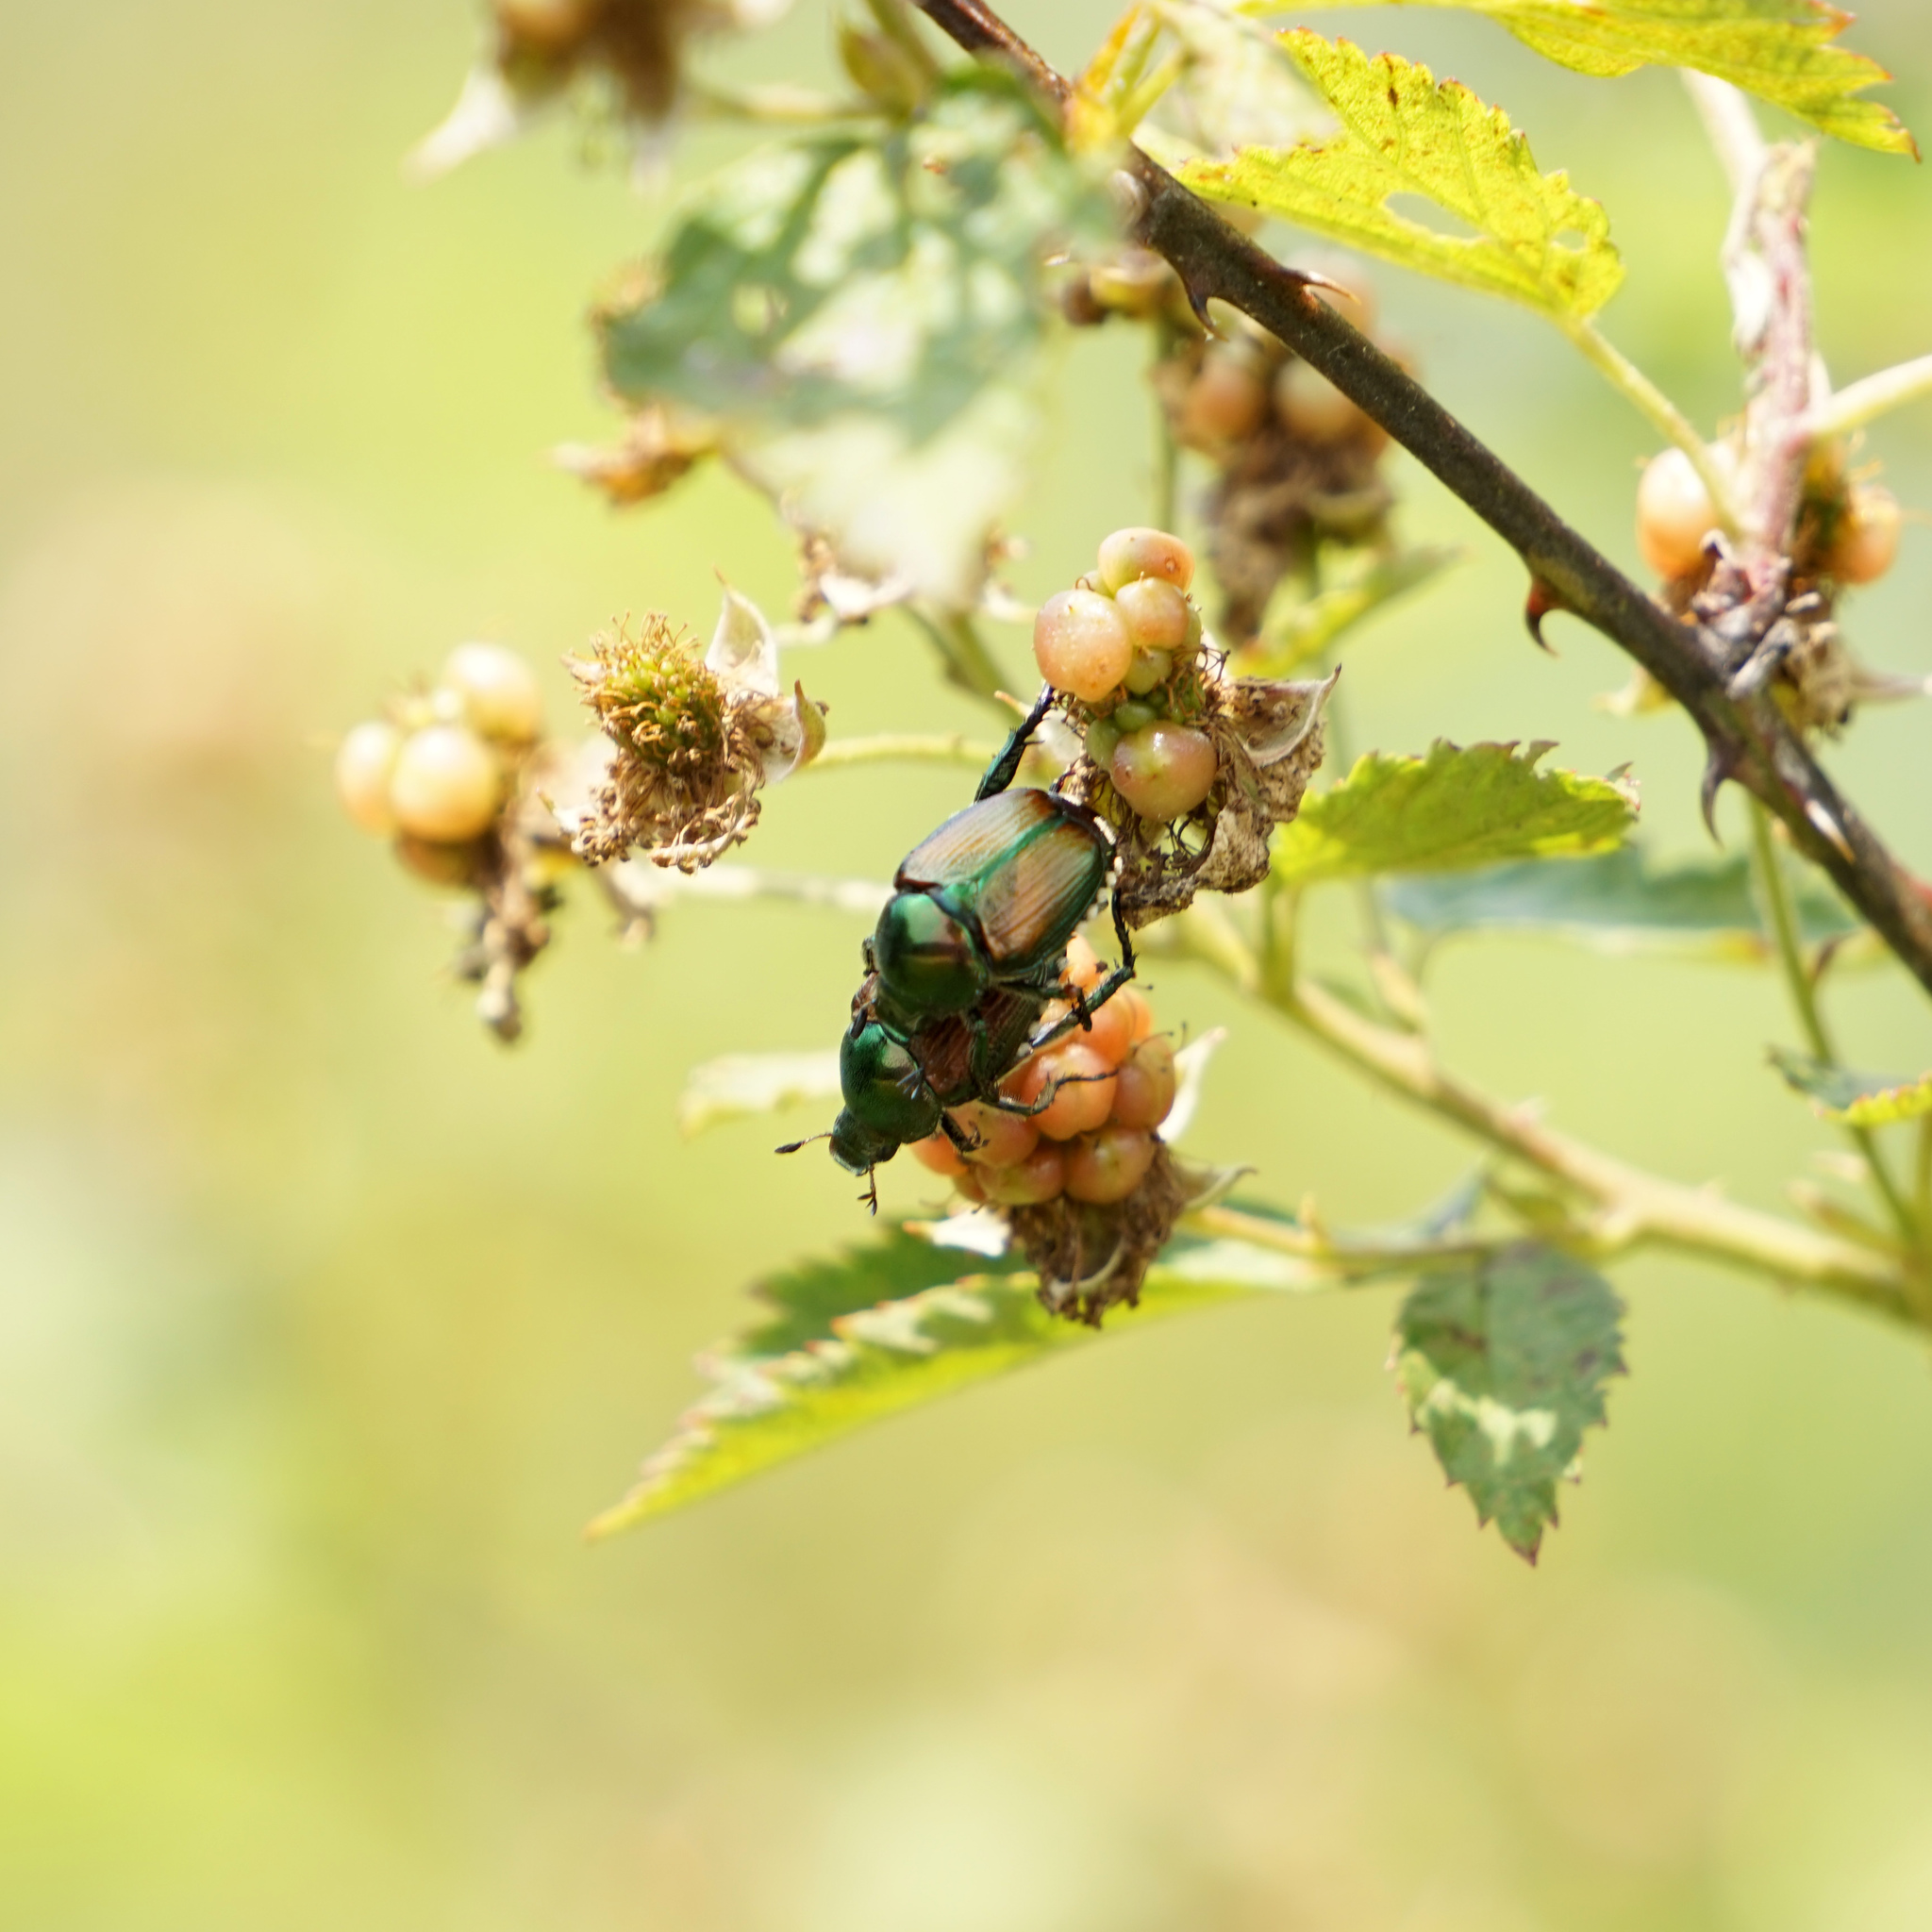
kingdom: Animalia
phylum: Arthropoda
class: Insecta
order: Coleoptera
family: Scarabaeidae
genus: Popillia
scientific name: Popillia japonica
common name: Japanese beetle
